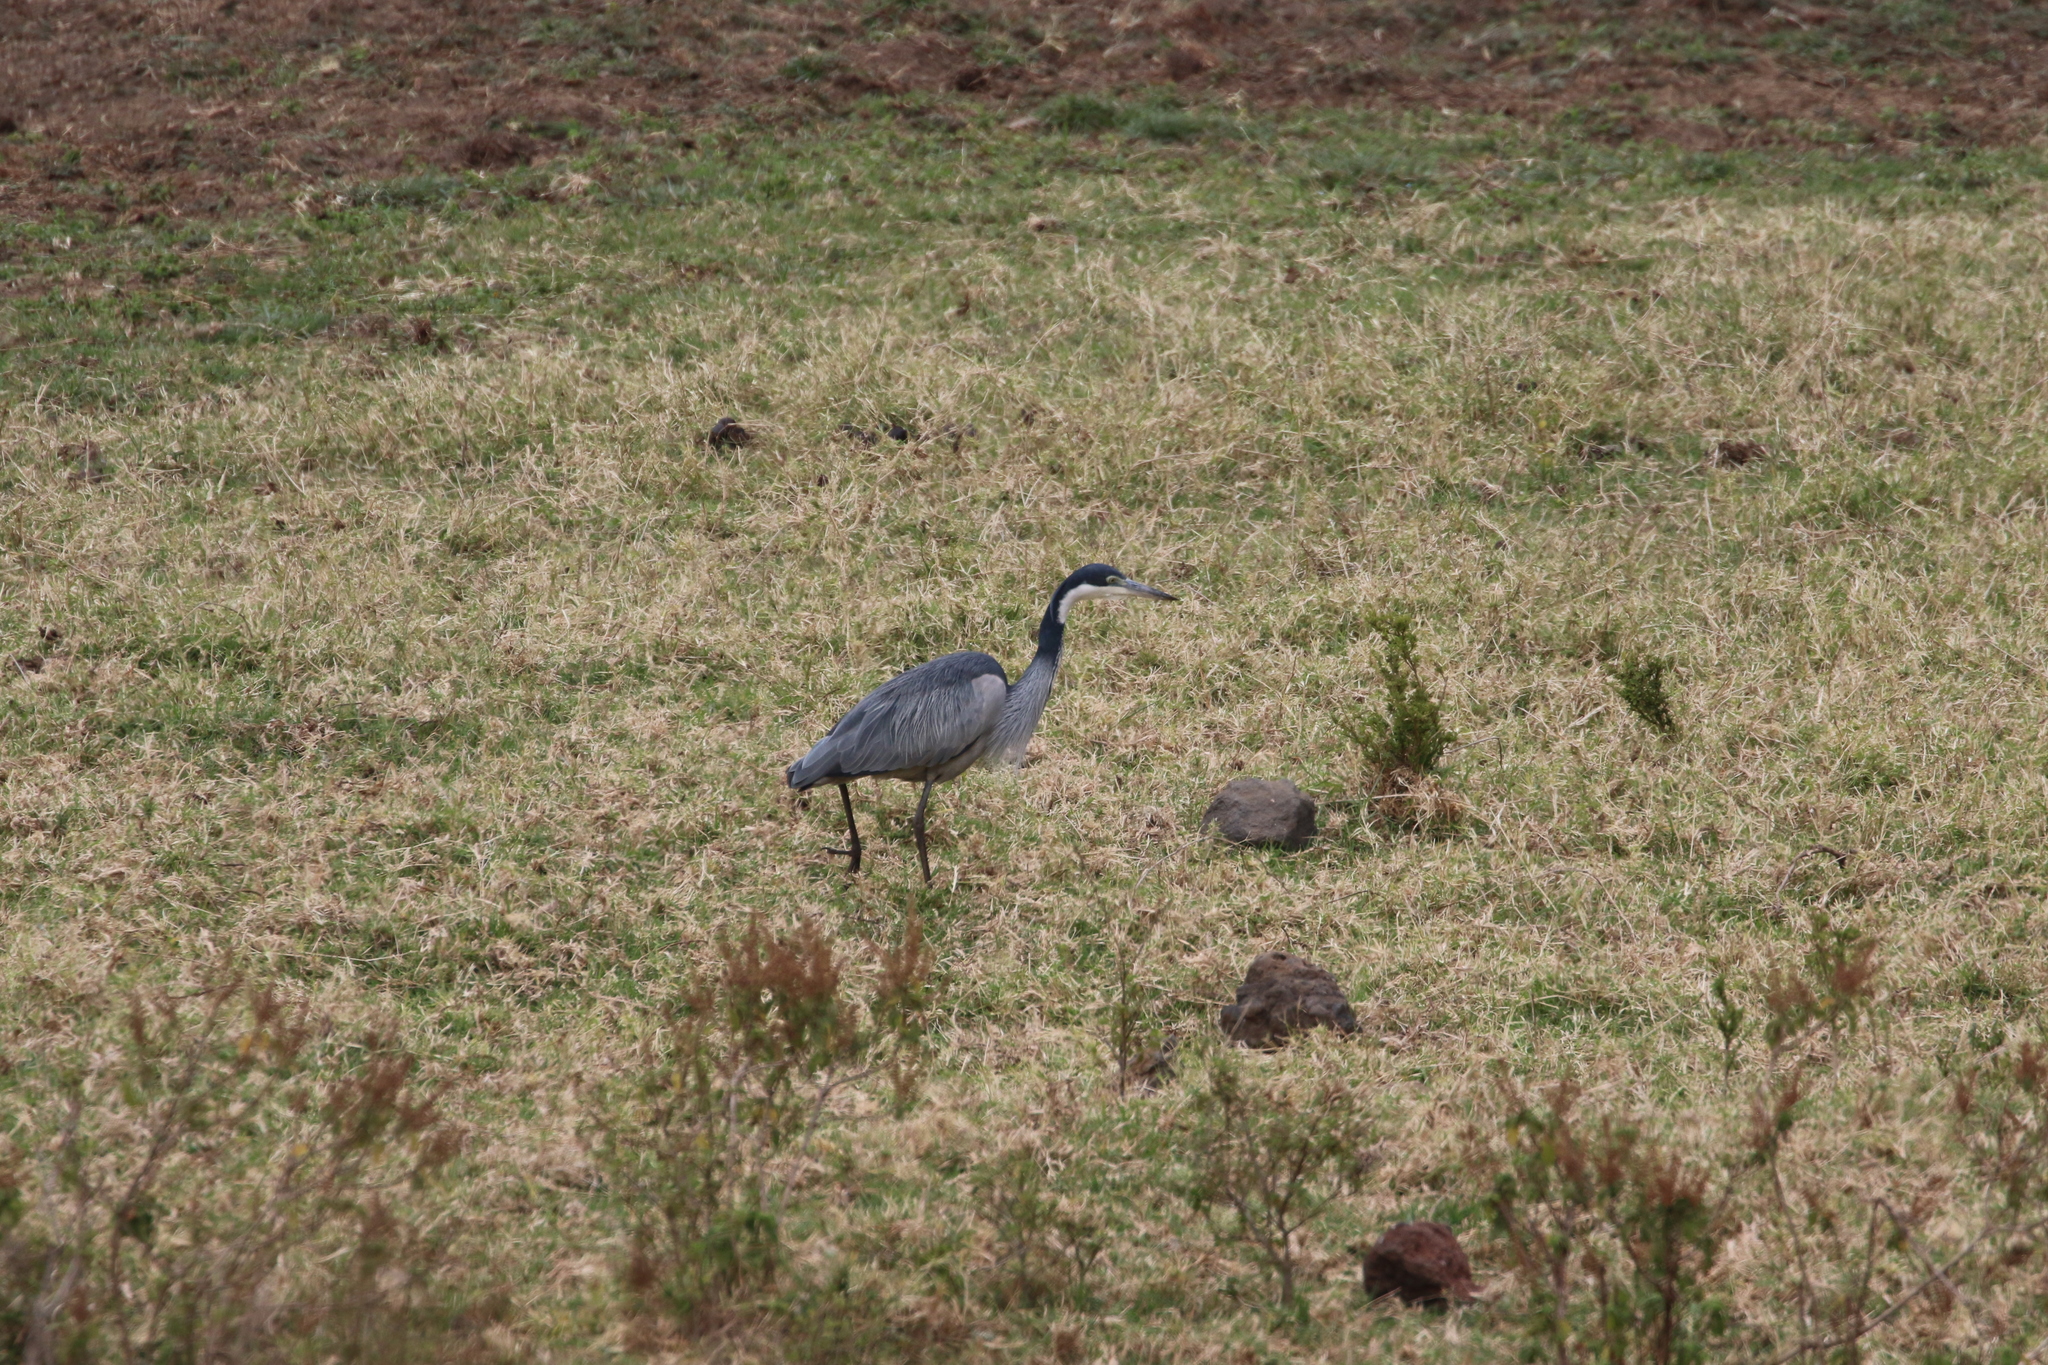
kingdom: Animalia
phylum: Chordata
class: Aves
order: Pelecaniformes
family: Ardeidae
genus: Ardea
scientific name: Ardea melanocephala
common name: Black-headed heron
